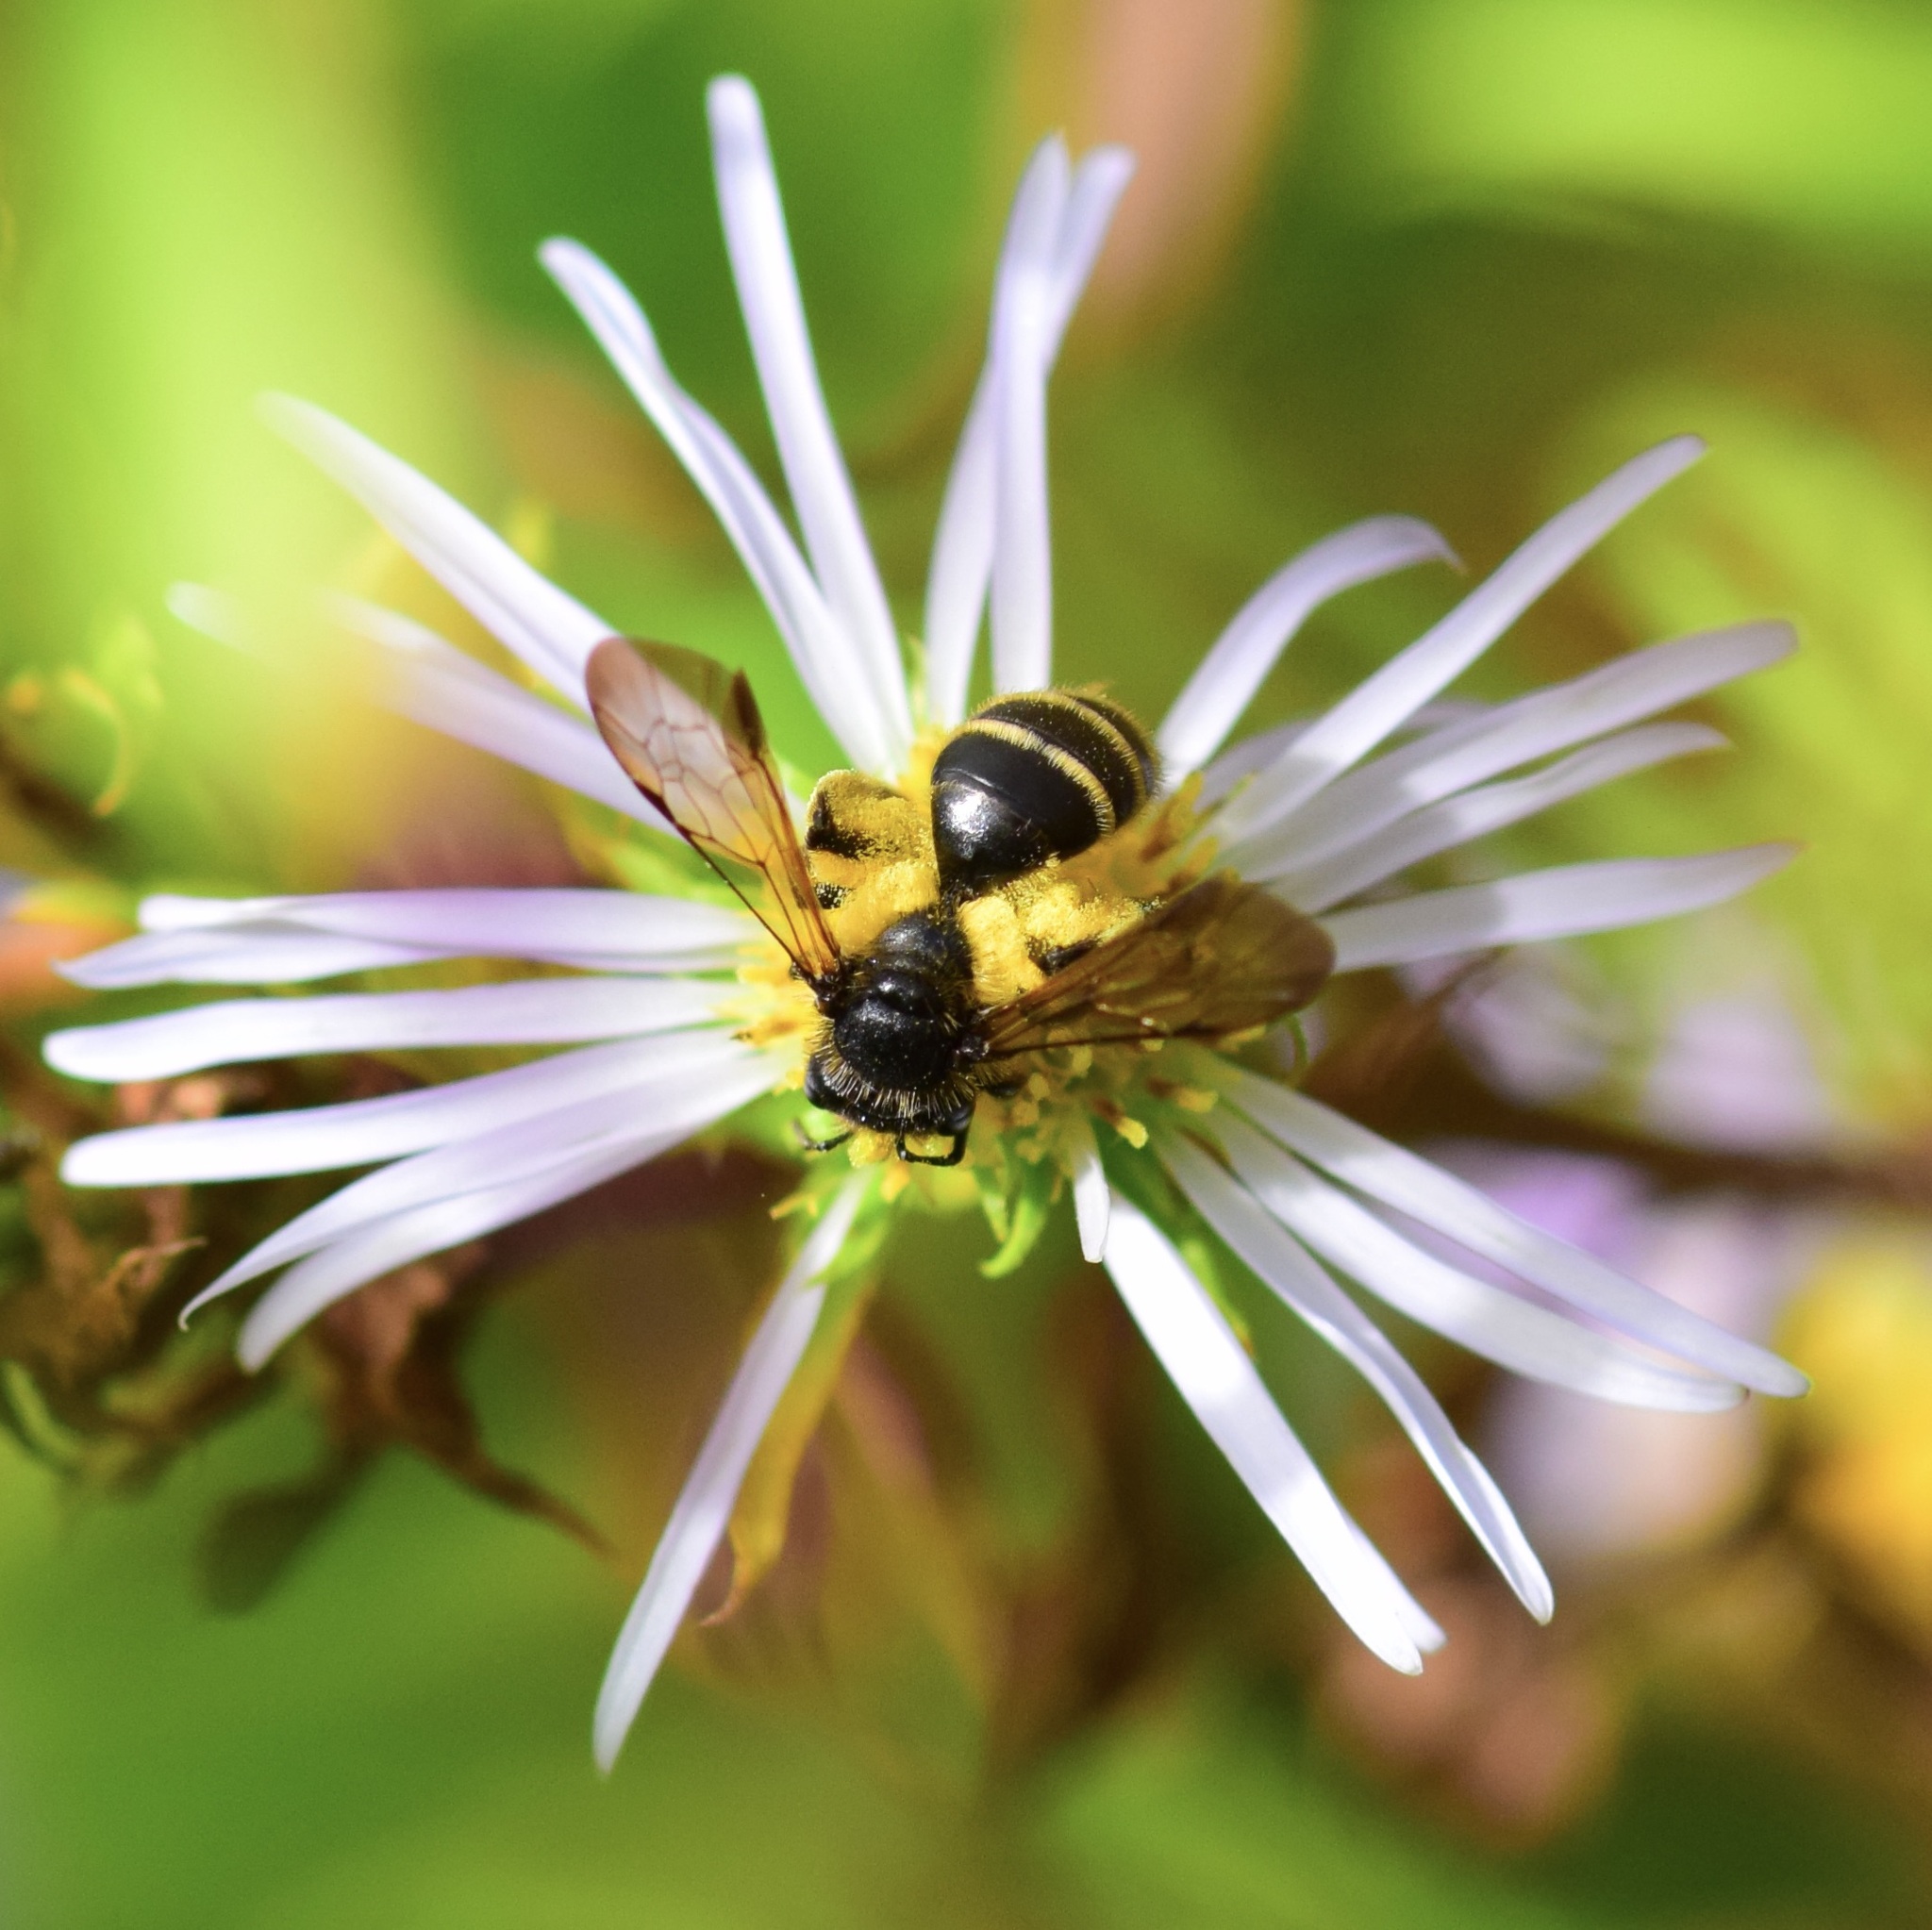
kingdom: Animalia
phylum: Arthropoda
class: Insecta
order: Hymenoptera
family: Andrenidae
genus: Andrena
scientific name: Andrena robervalensis
